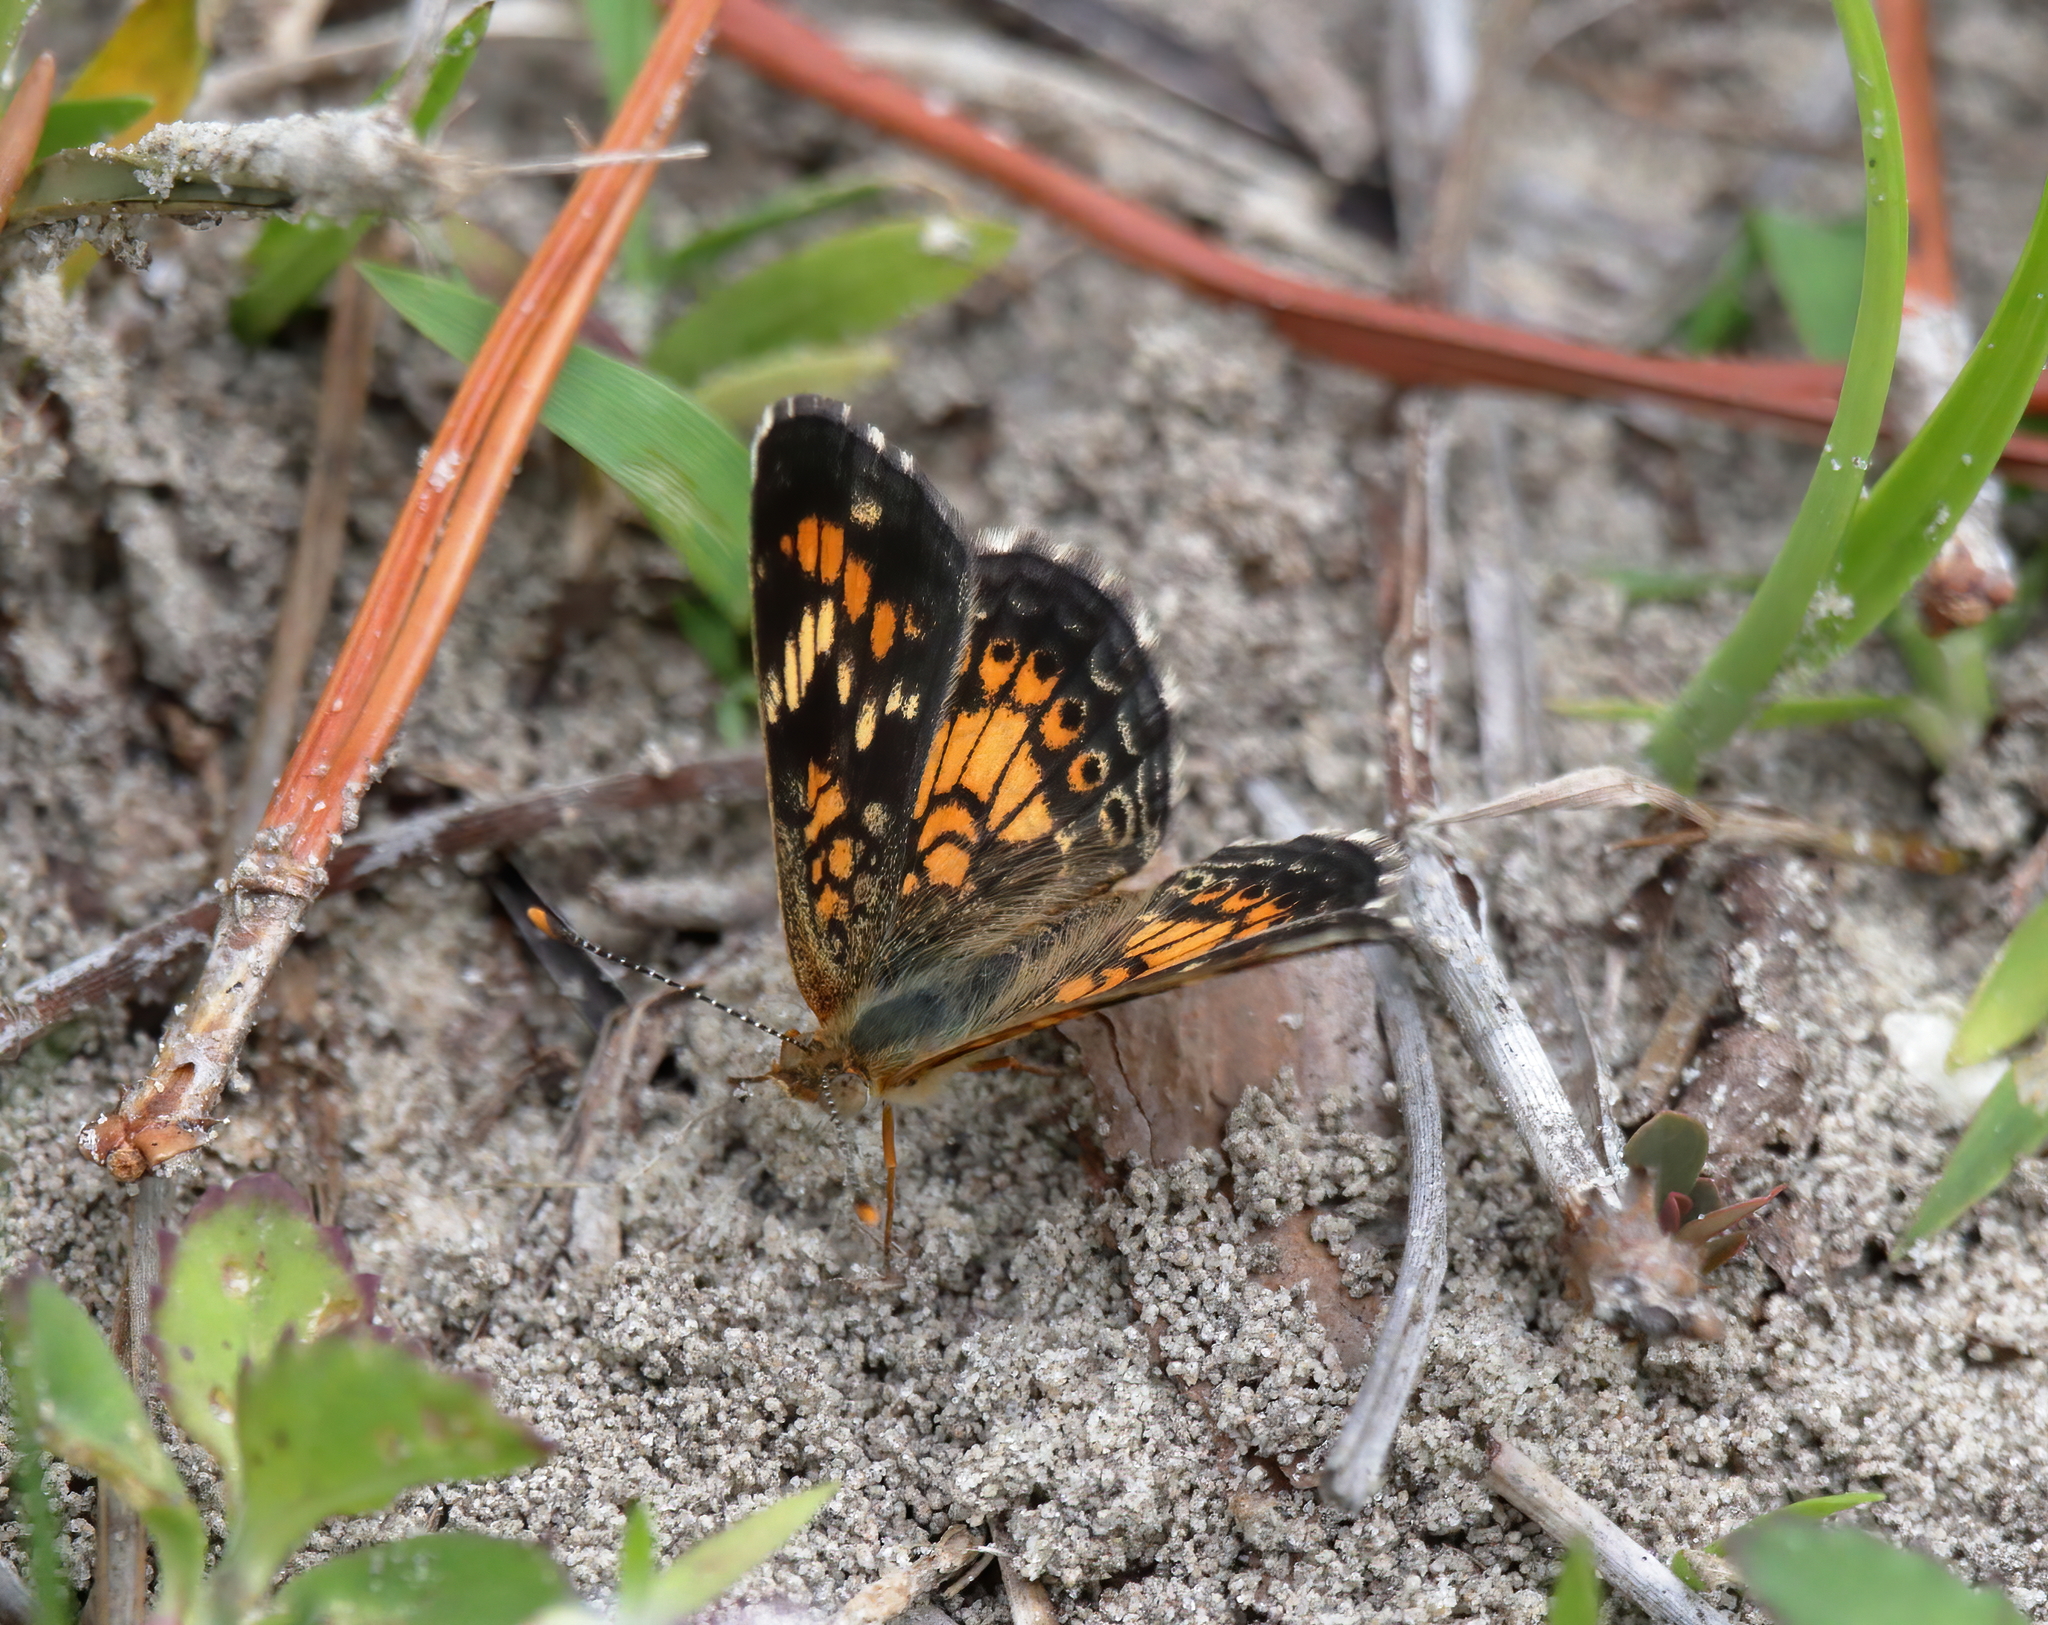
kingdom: Animalia
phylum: Arthropoda
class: Insecta
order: Lepidoptera
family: Nymphalidae
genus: Phyciodes
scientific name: Phyciodes phaon
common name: Phaon crescent
